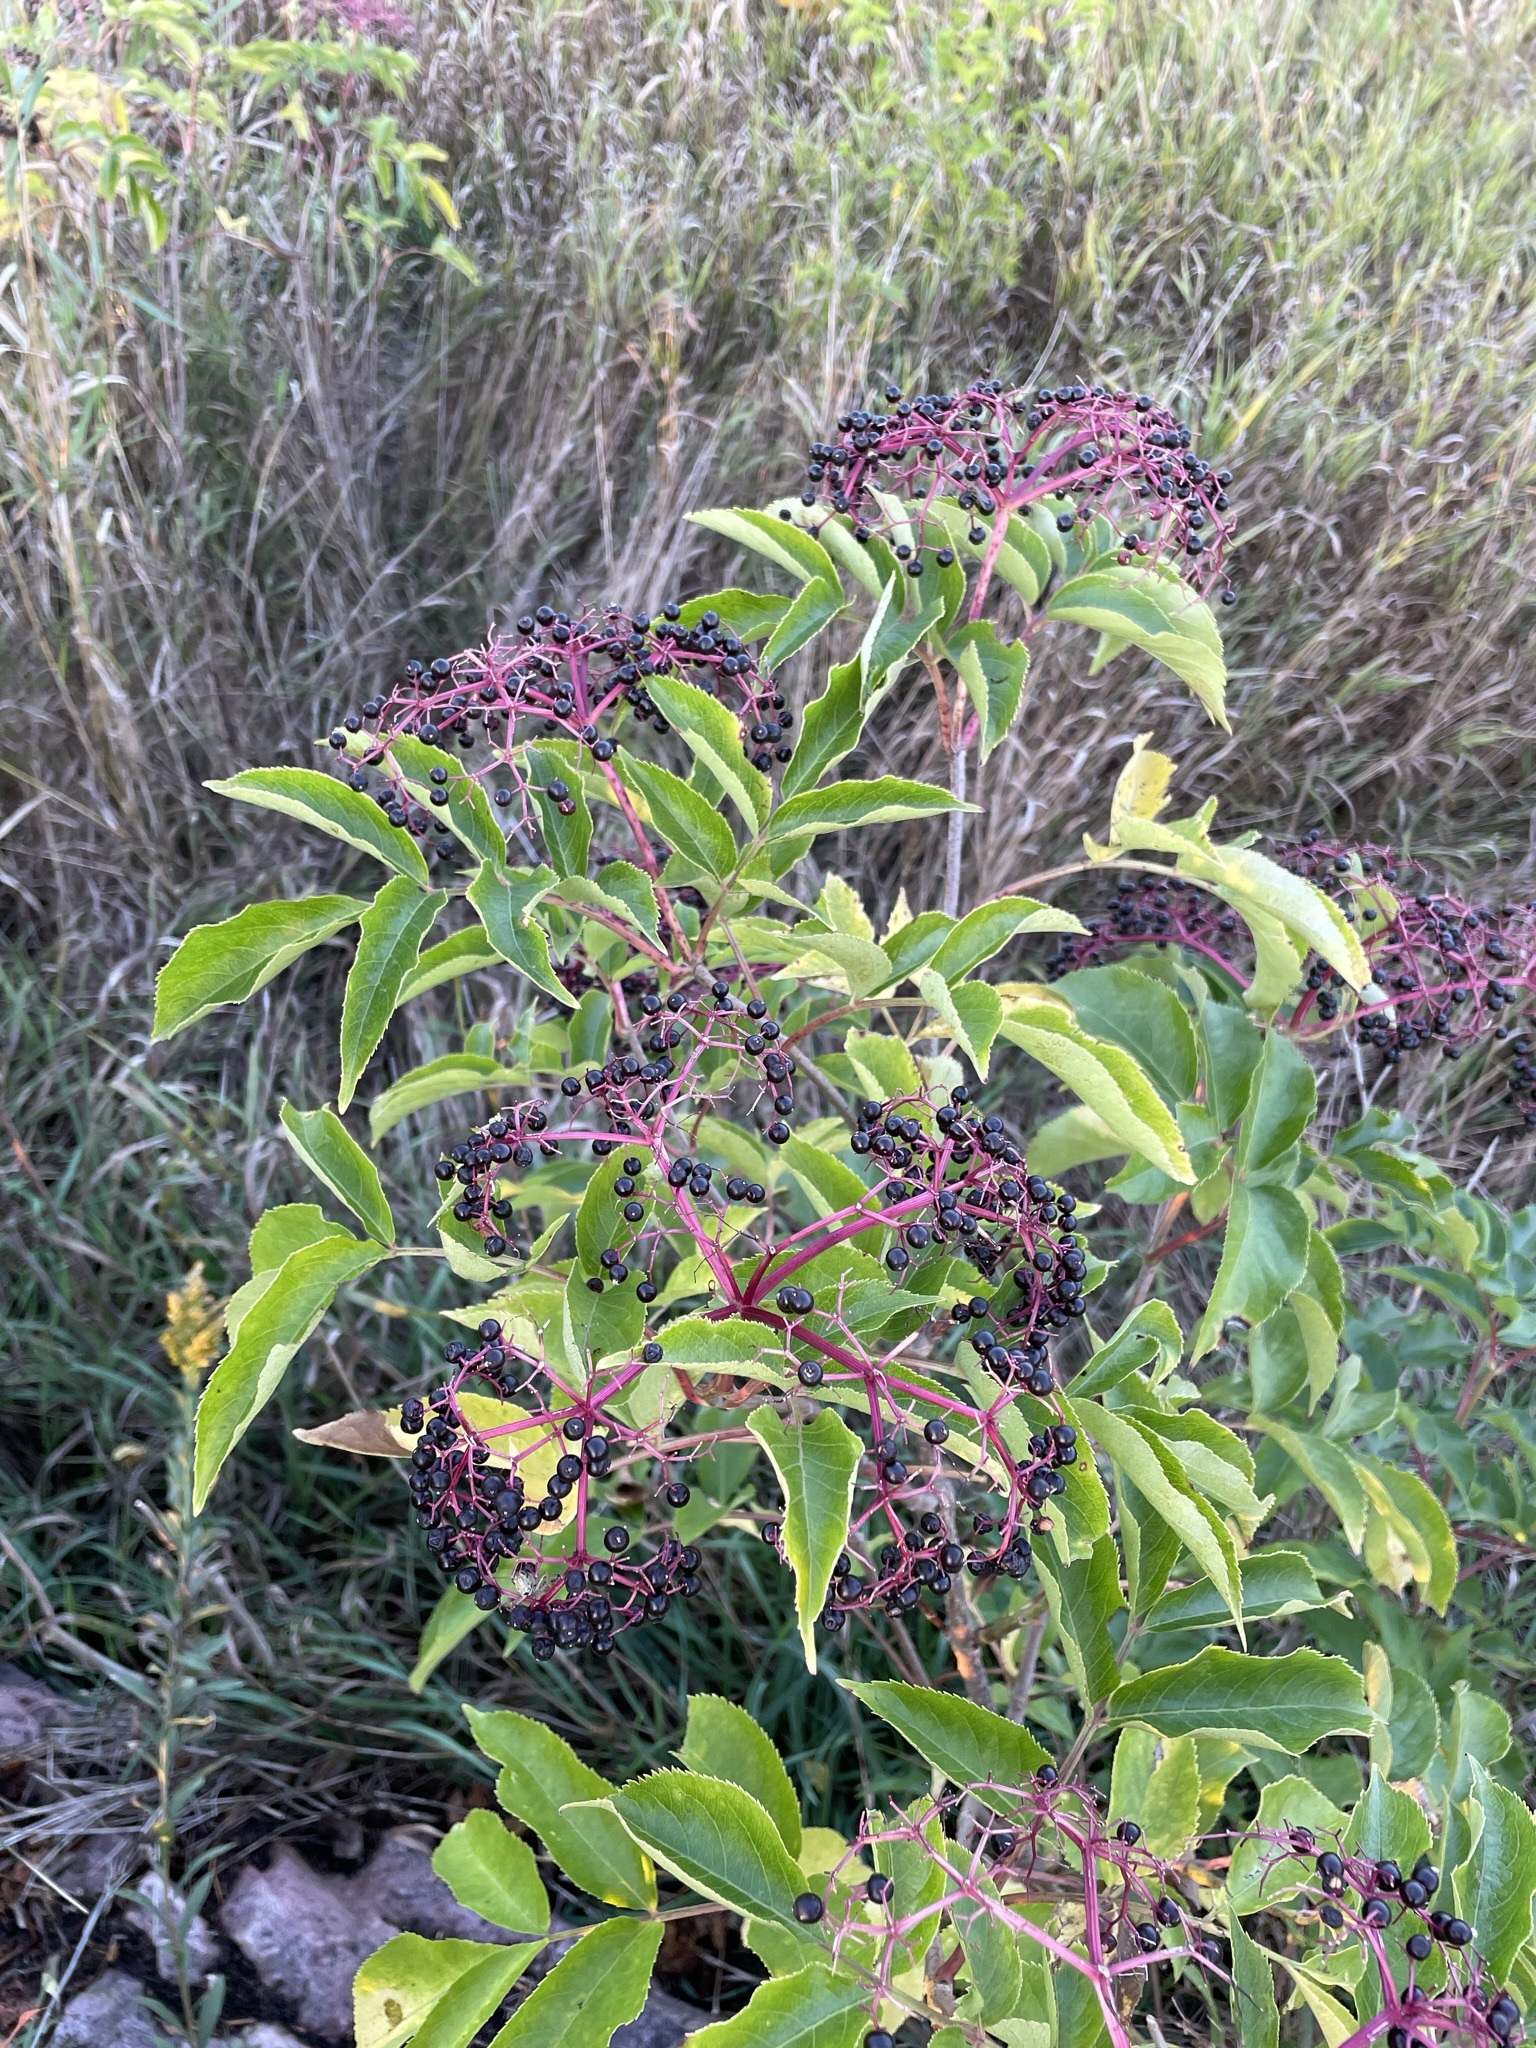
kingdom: Plantae
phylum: Tracheophyta
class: Magnoliopsida
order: Dipsacales
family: Viburnaceae
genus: Sambucus
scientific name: Sambucus canadensis
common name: American elder
